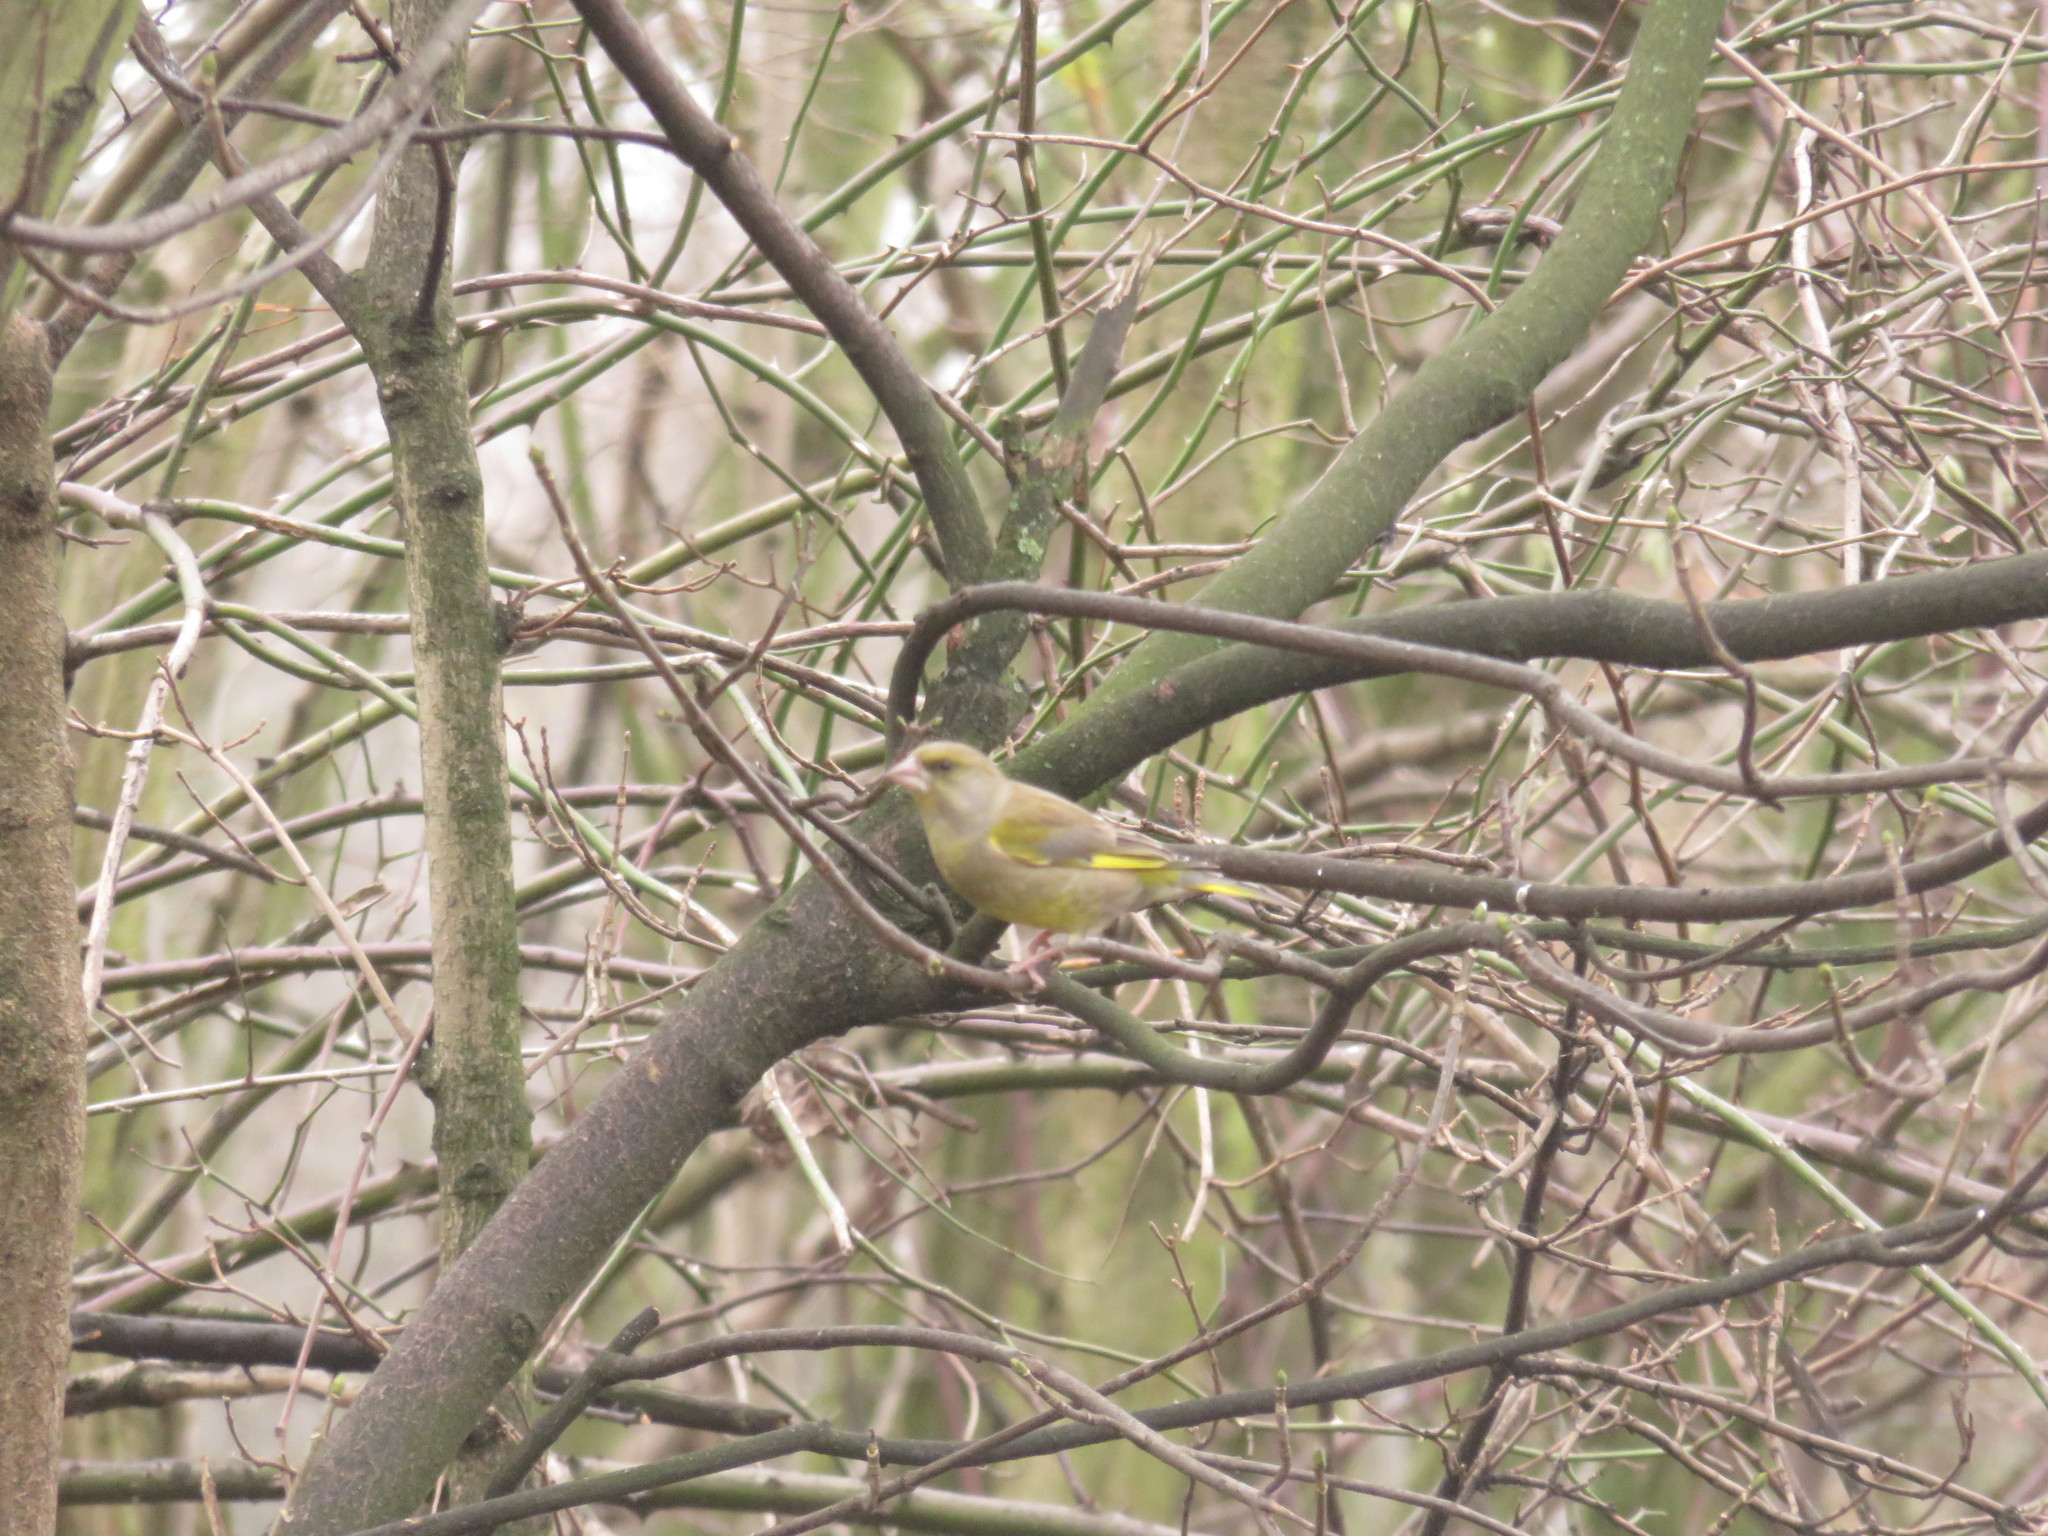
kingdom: Plantae
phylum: Tracheophyta
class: Liliopsida
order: Poales
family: Poaceae
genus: Chloris
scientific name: Chloris chloris
